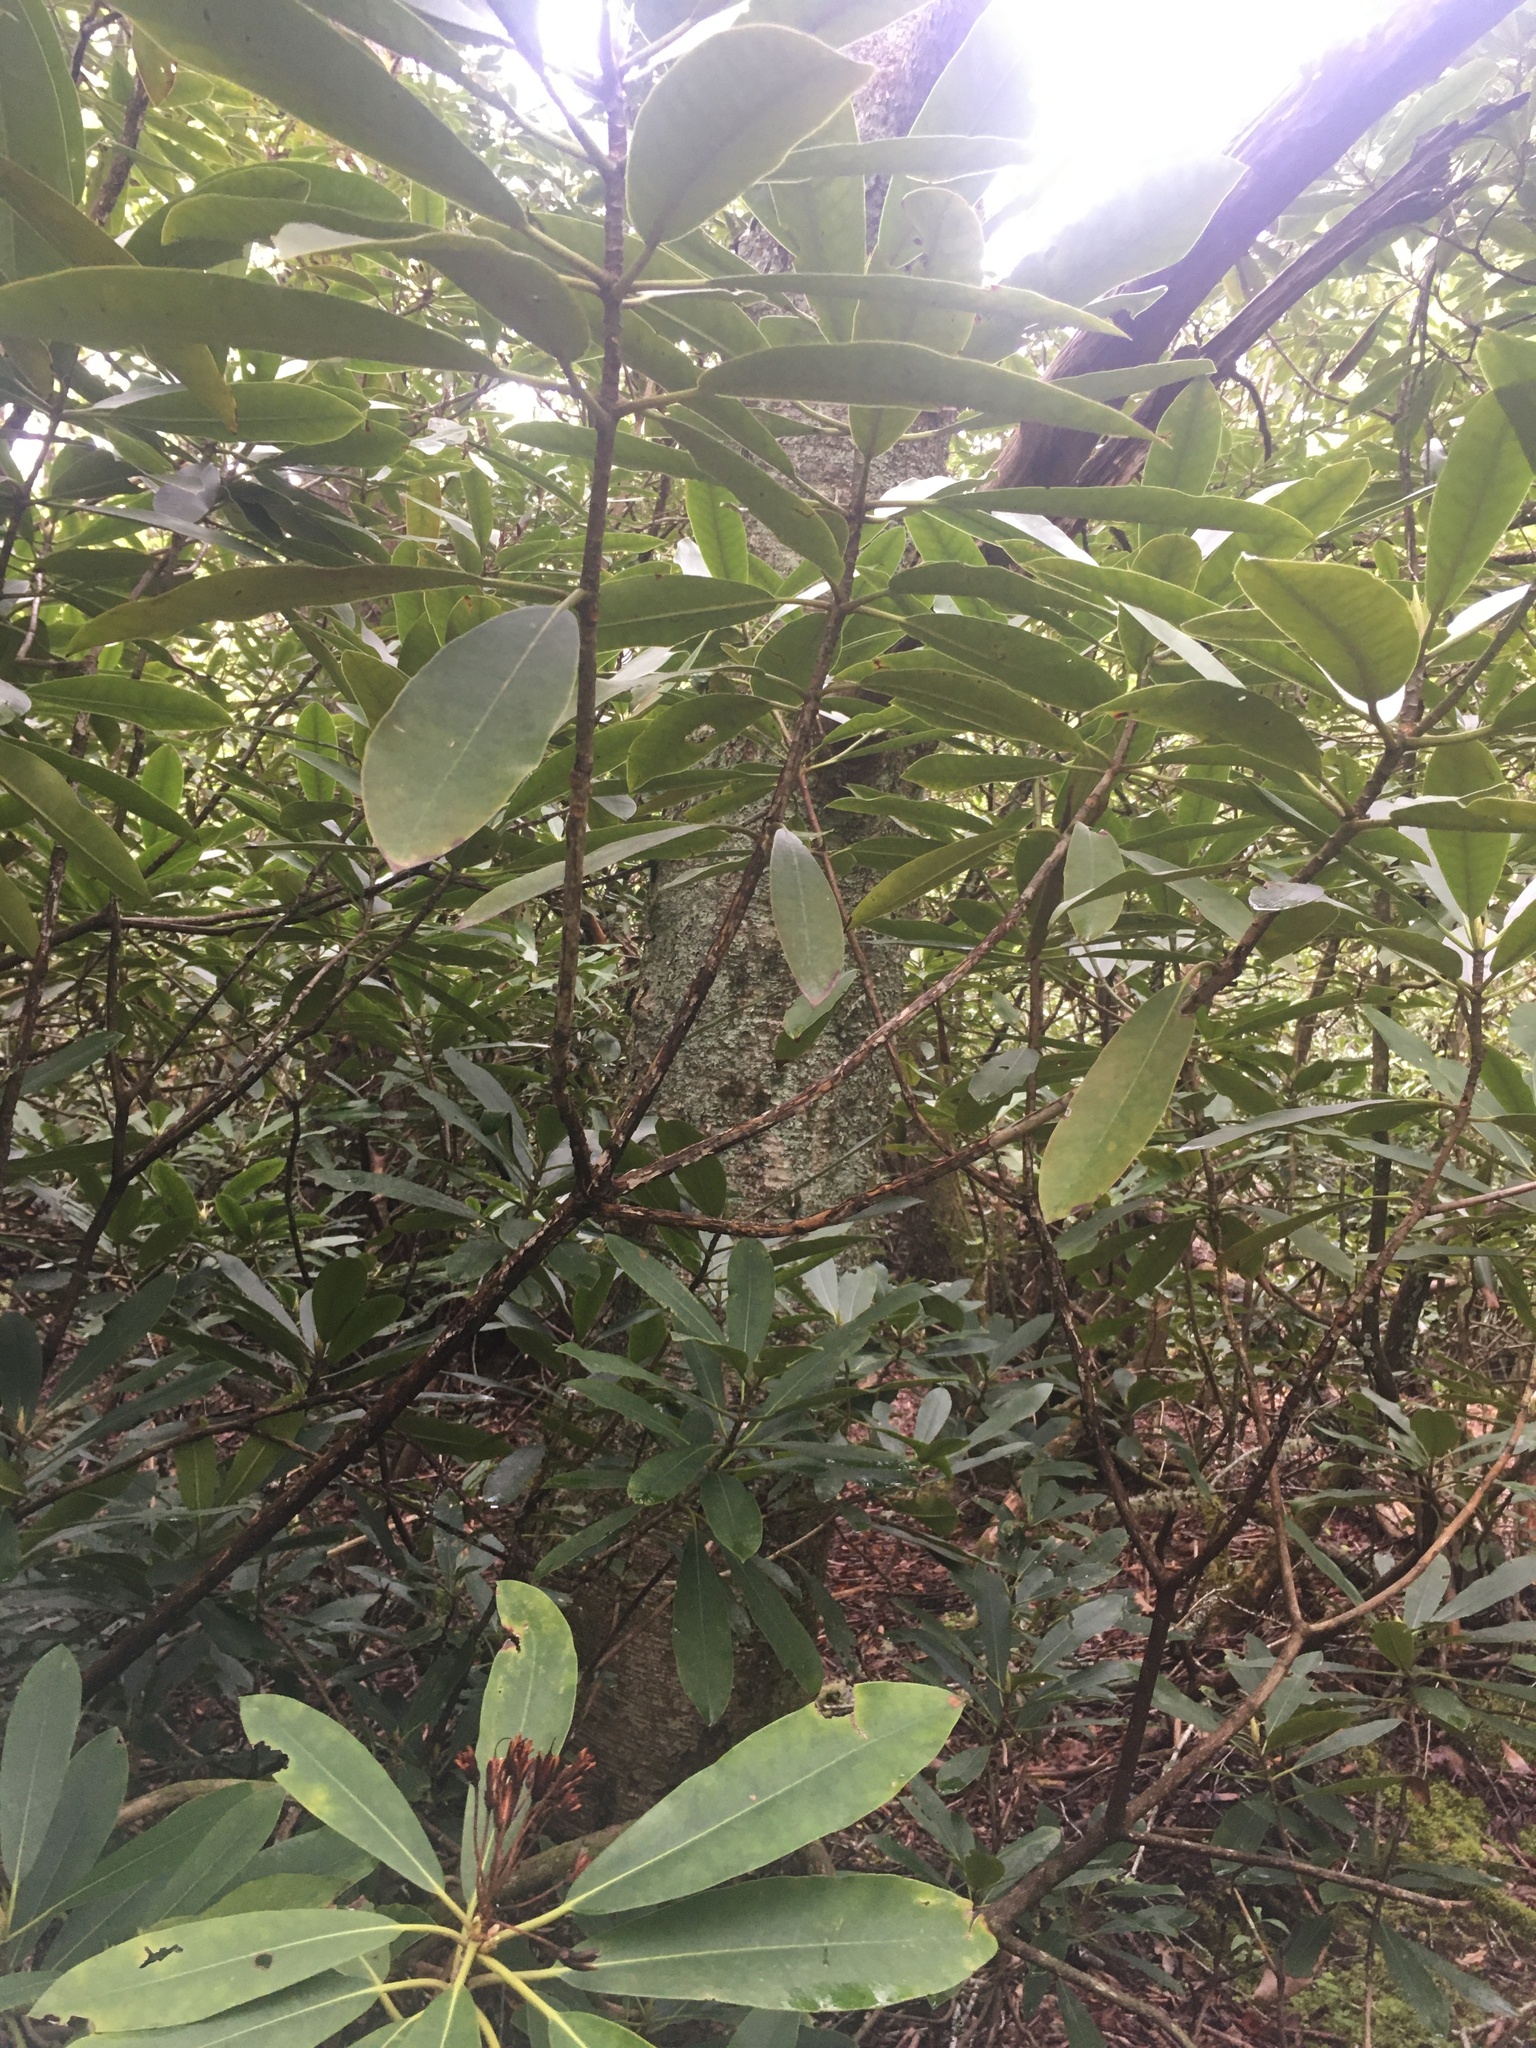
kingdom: Plantae
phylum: Tracheophyta
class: Magnoliopsida
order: Fagales
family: Betulaceae
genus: Betula
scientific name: Betula alleghaniensis
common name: Yellow birch
